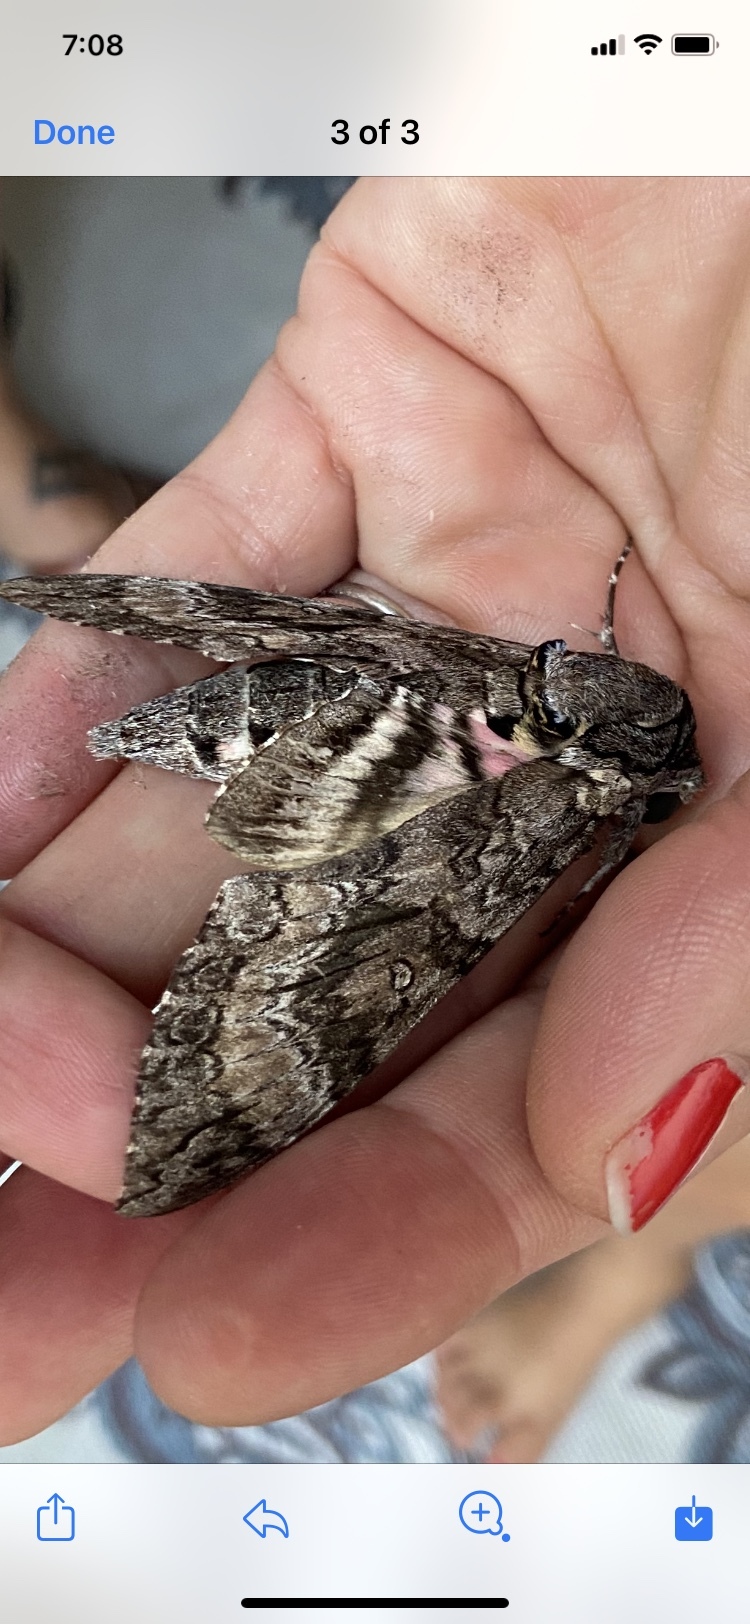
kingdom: Animalia
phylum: Arthropoda
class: Insecta
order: Lepidoptera
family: Sphingidae
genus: Agrius
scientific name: Agrius cingulata
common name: Pink-spotted hawkmoth
